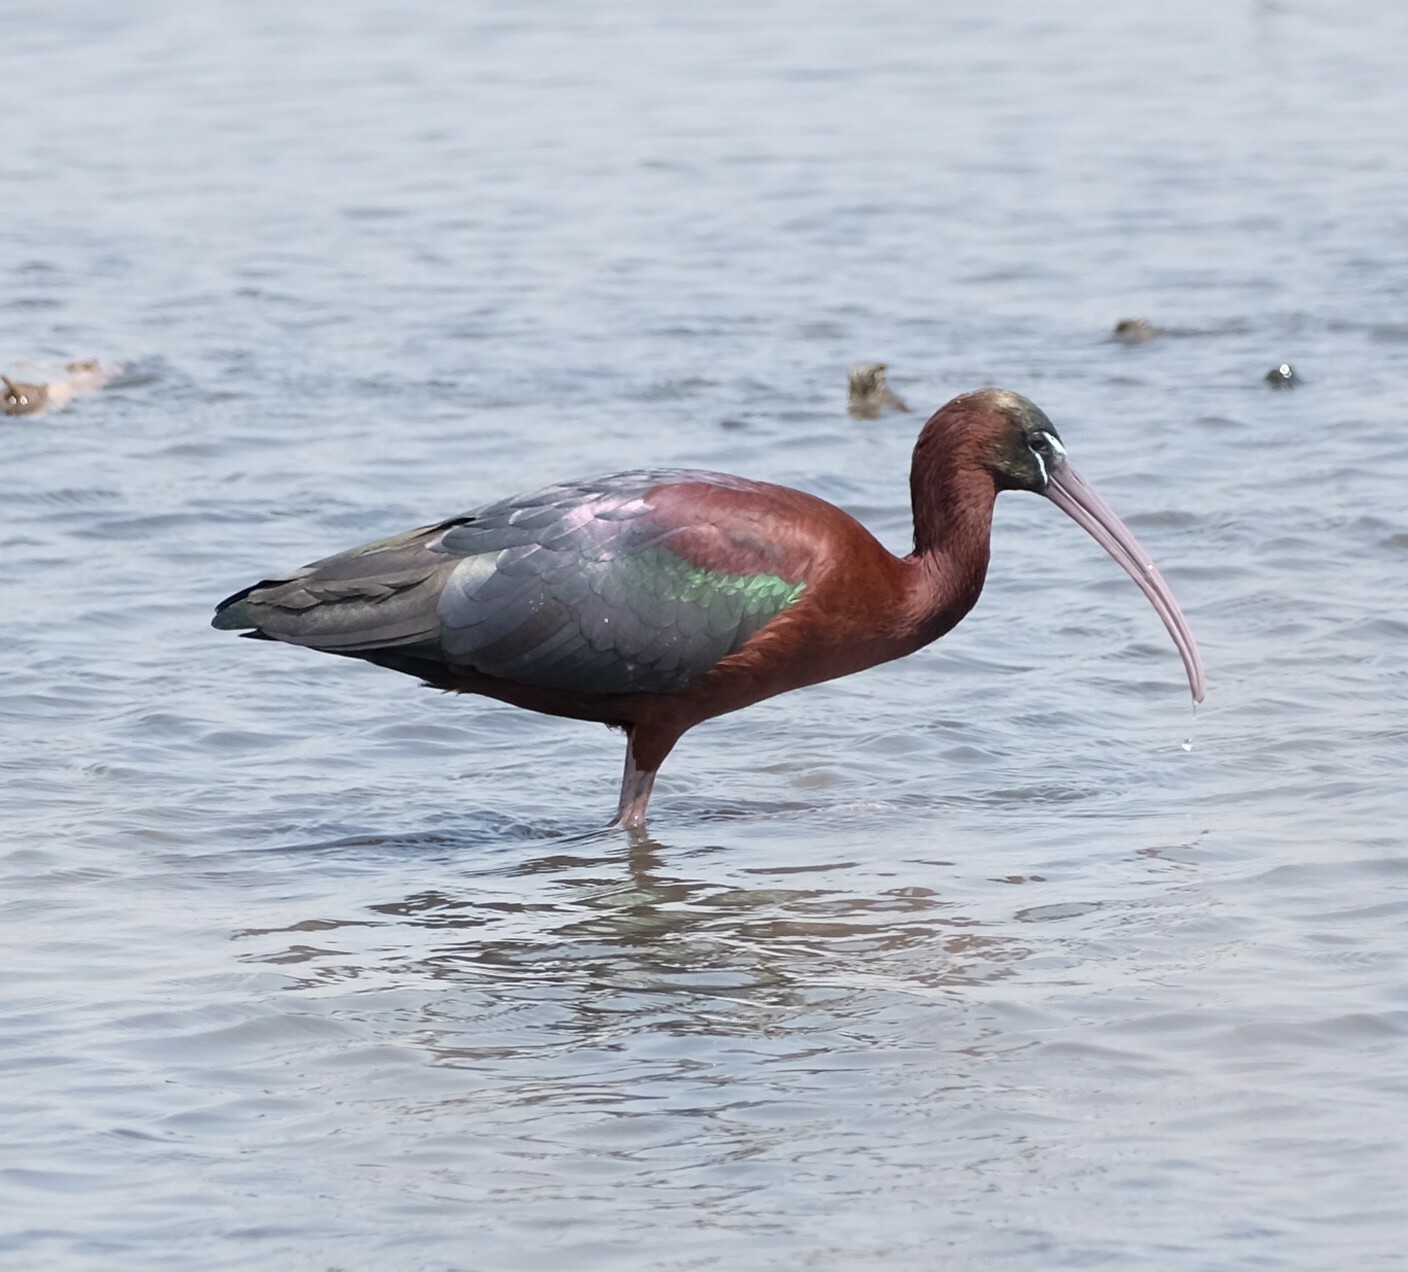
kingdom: Animalia
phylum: Chordata
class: Aves
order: Pelecaniformes
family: Threskiornithidae
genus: Plegadis
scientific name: Plegadis falcinellus
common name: Glossy ibis
